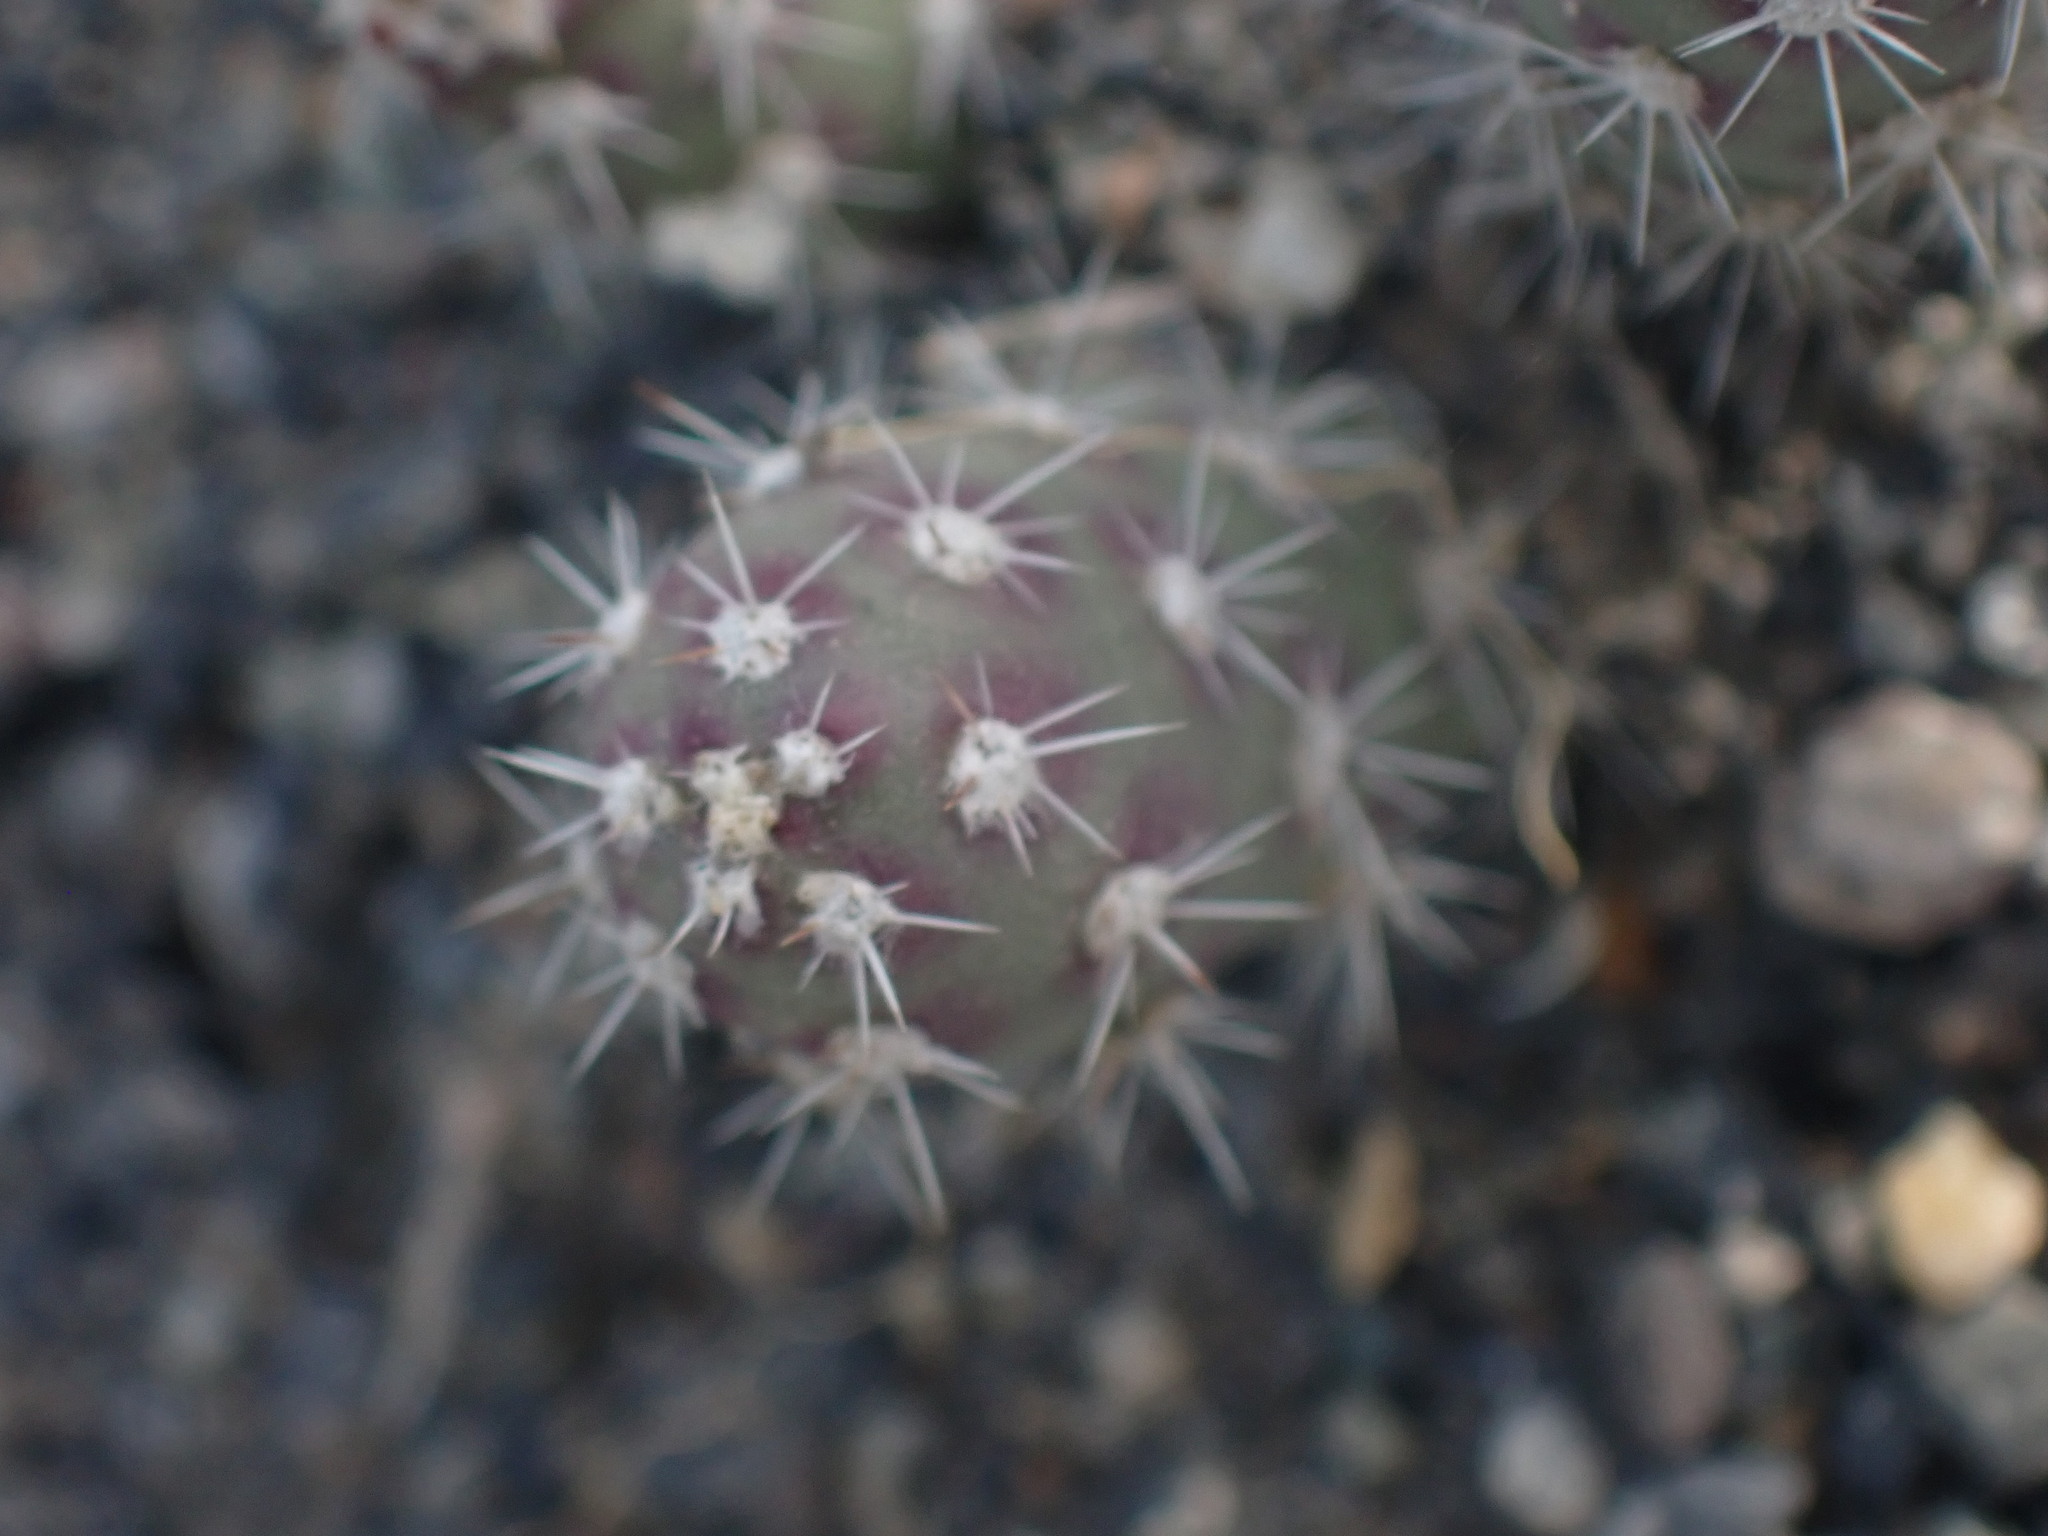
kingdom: Plantae
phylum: Tracheophyta
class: Magnoliopsida
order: Caryophyllales
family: Cactaceae
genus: Opuntia
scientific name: Opuntia fragilis
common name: Brittle cactus
